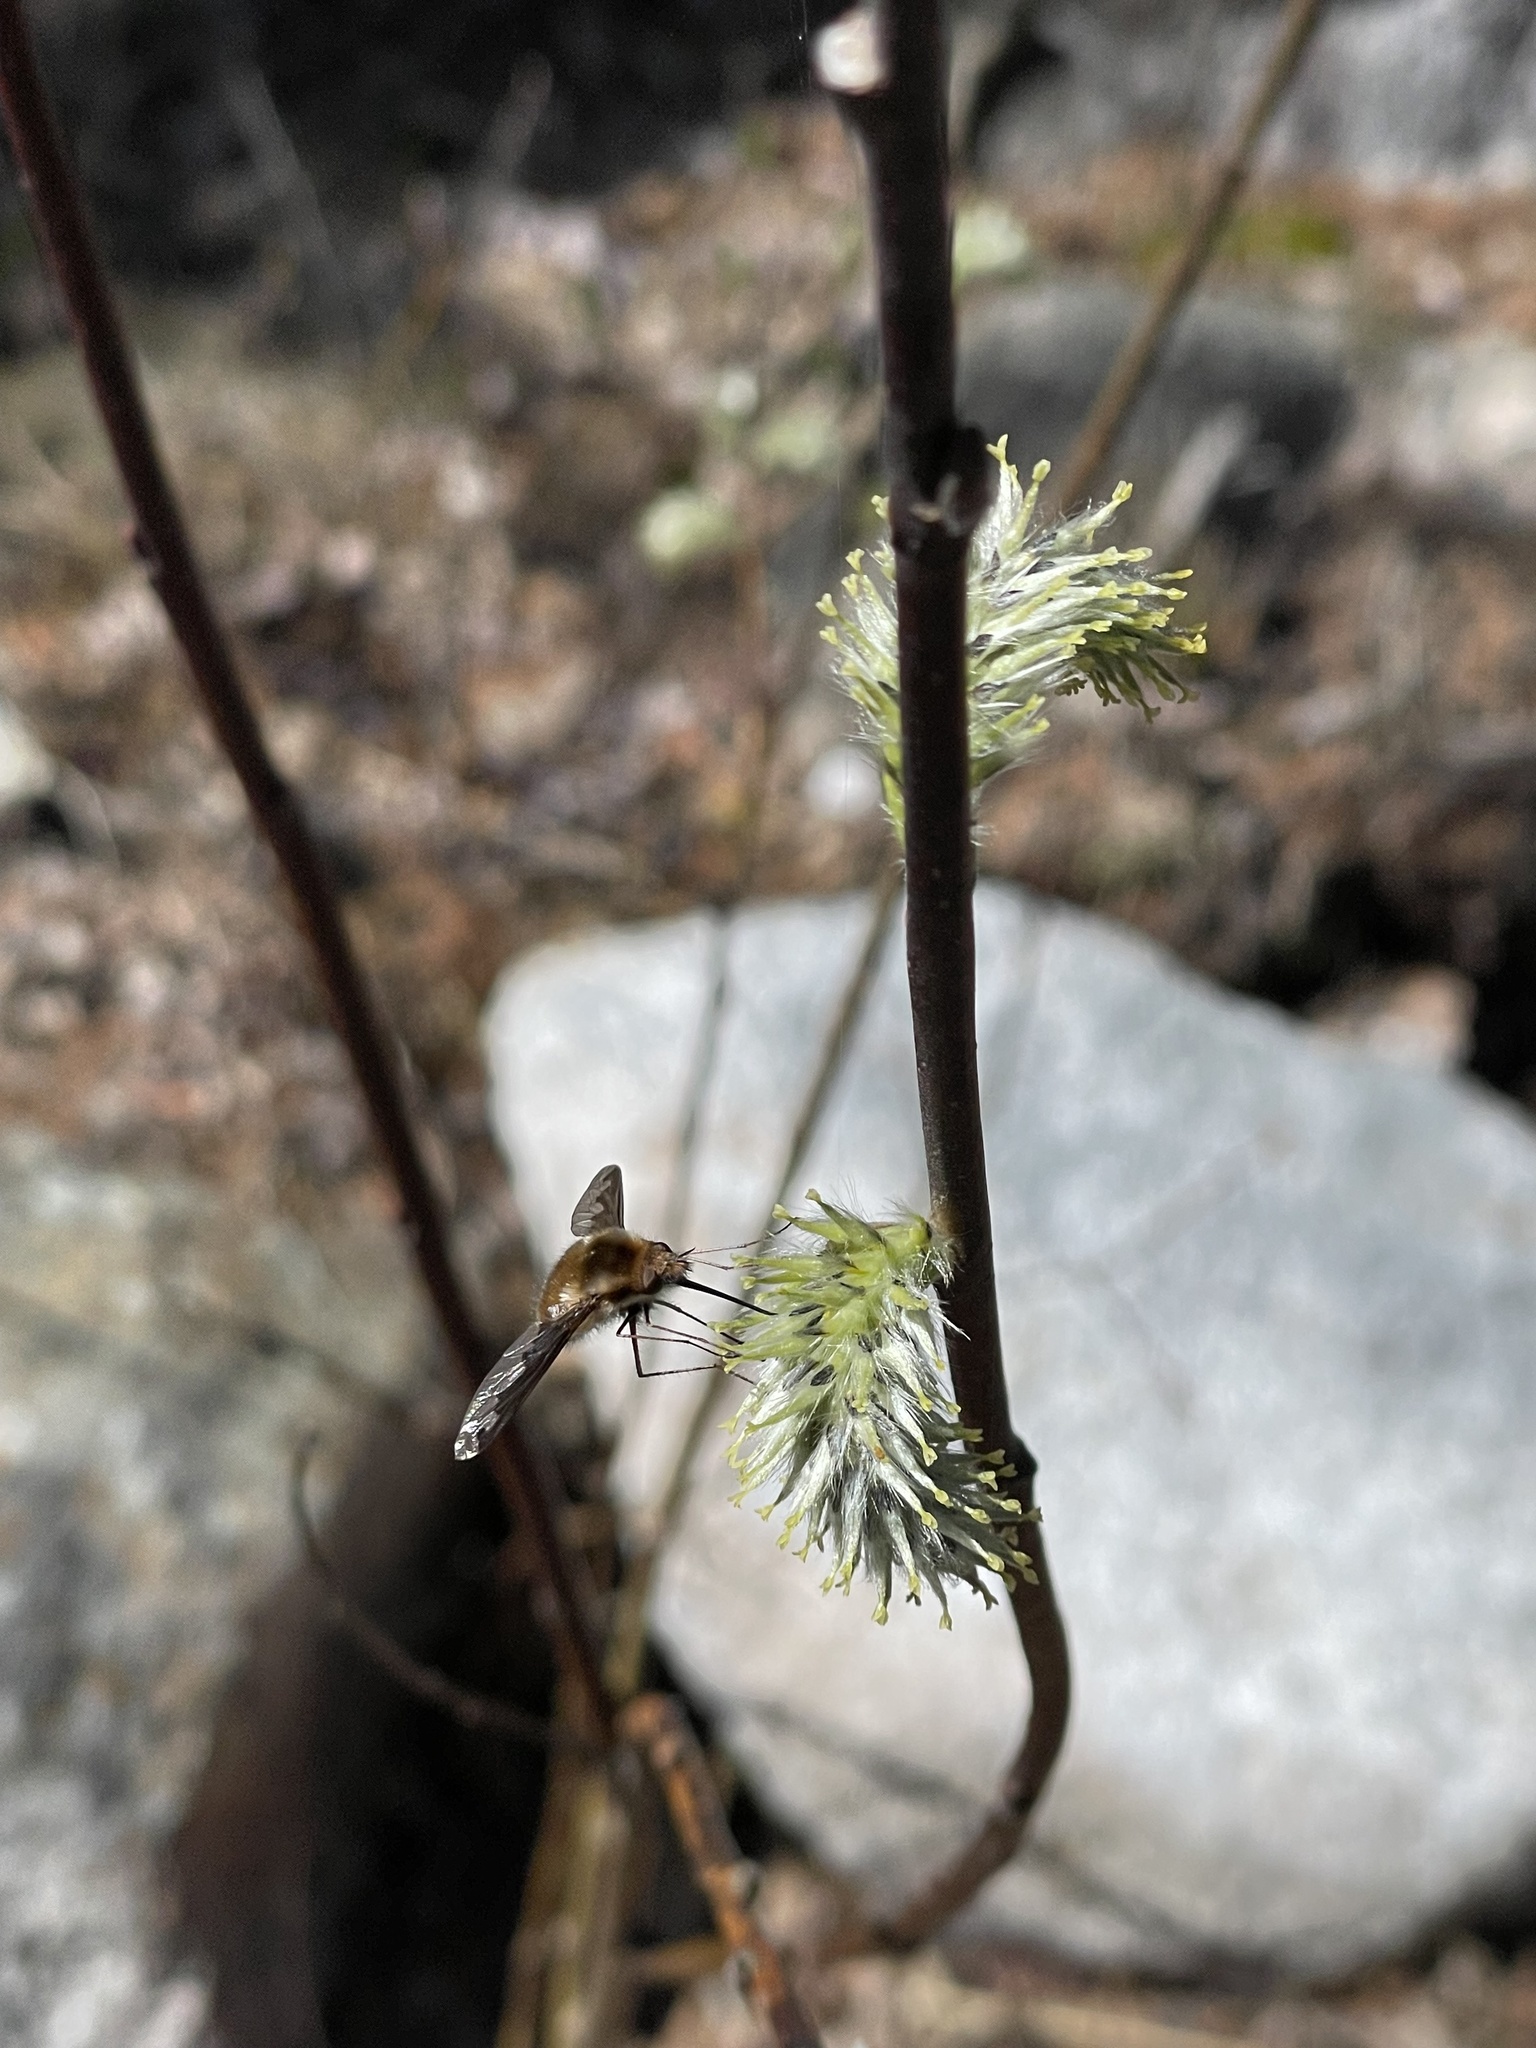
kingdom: Animalia
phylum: Arthropoda
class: Insecta
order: Diptera
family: Bombyliidae
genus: Bombylius
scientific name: Bombylius major
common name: Bee fly
